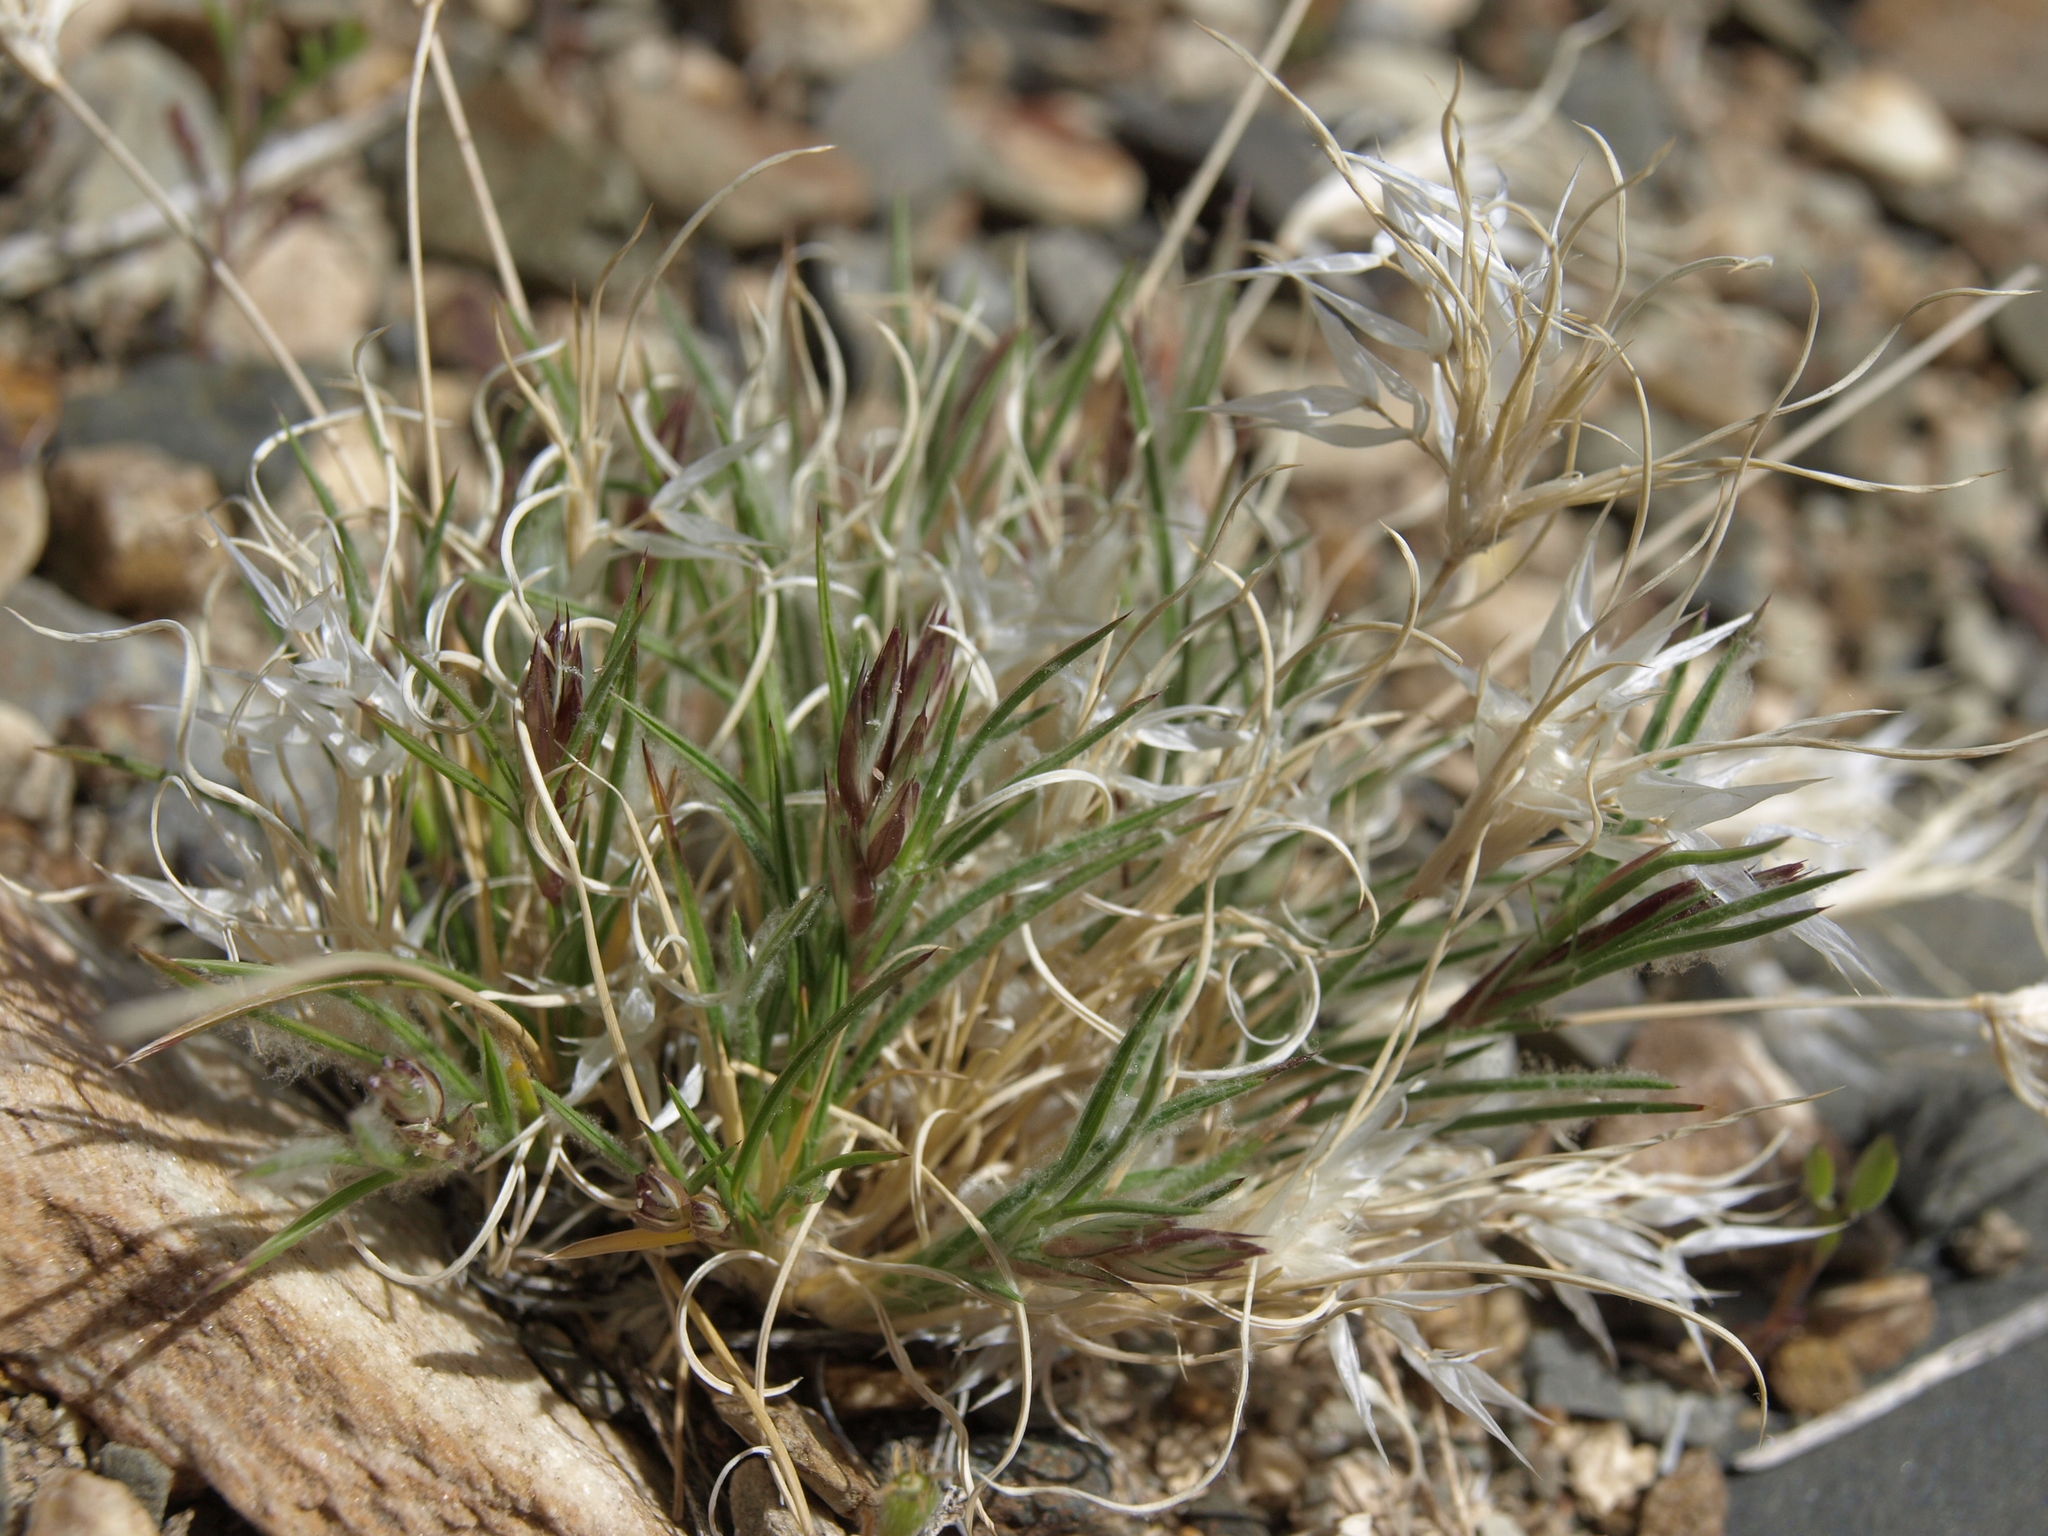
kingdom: Plantae
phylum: Tracheophyta
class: Liliopsida
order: Poales
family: Poaceae
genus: Dasyochloa
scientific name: Dasyochloa pulchella
